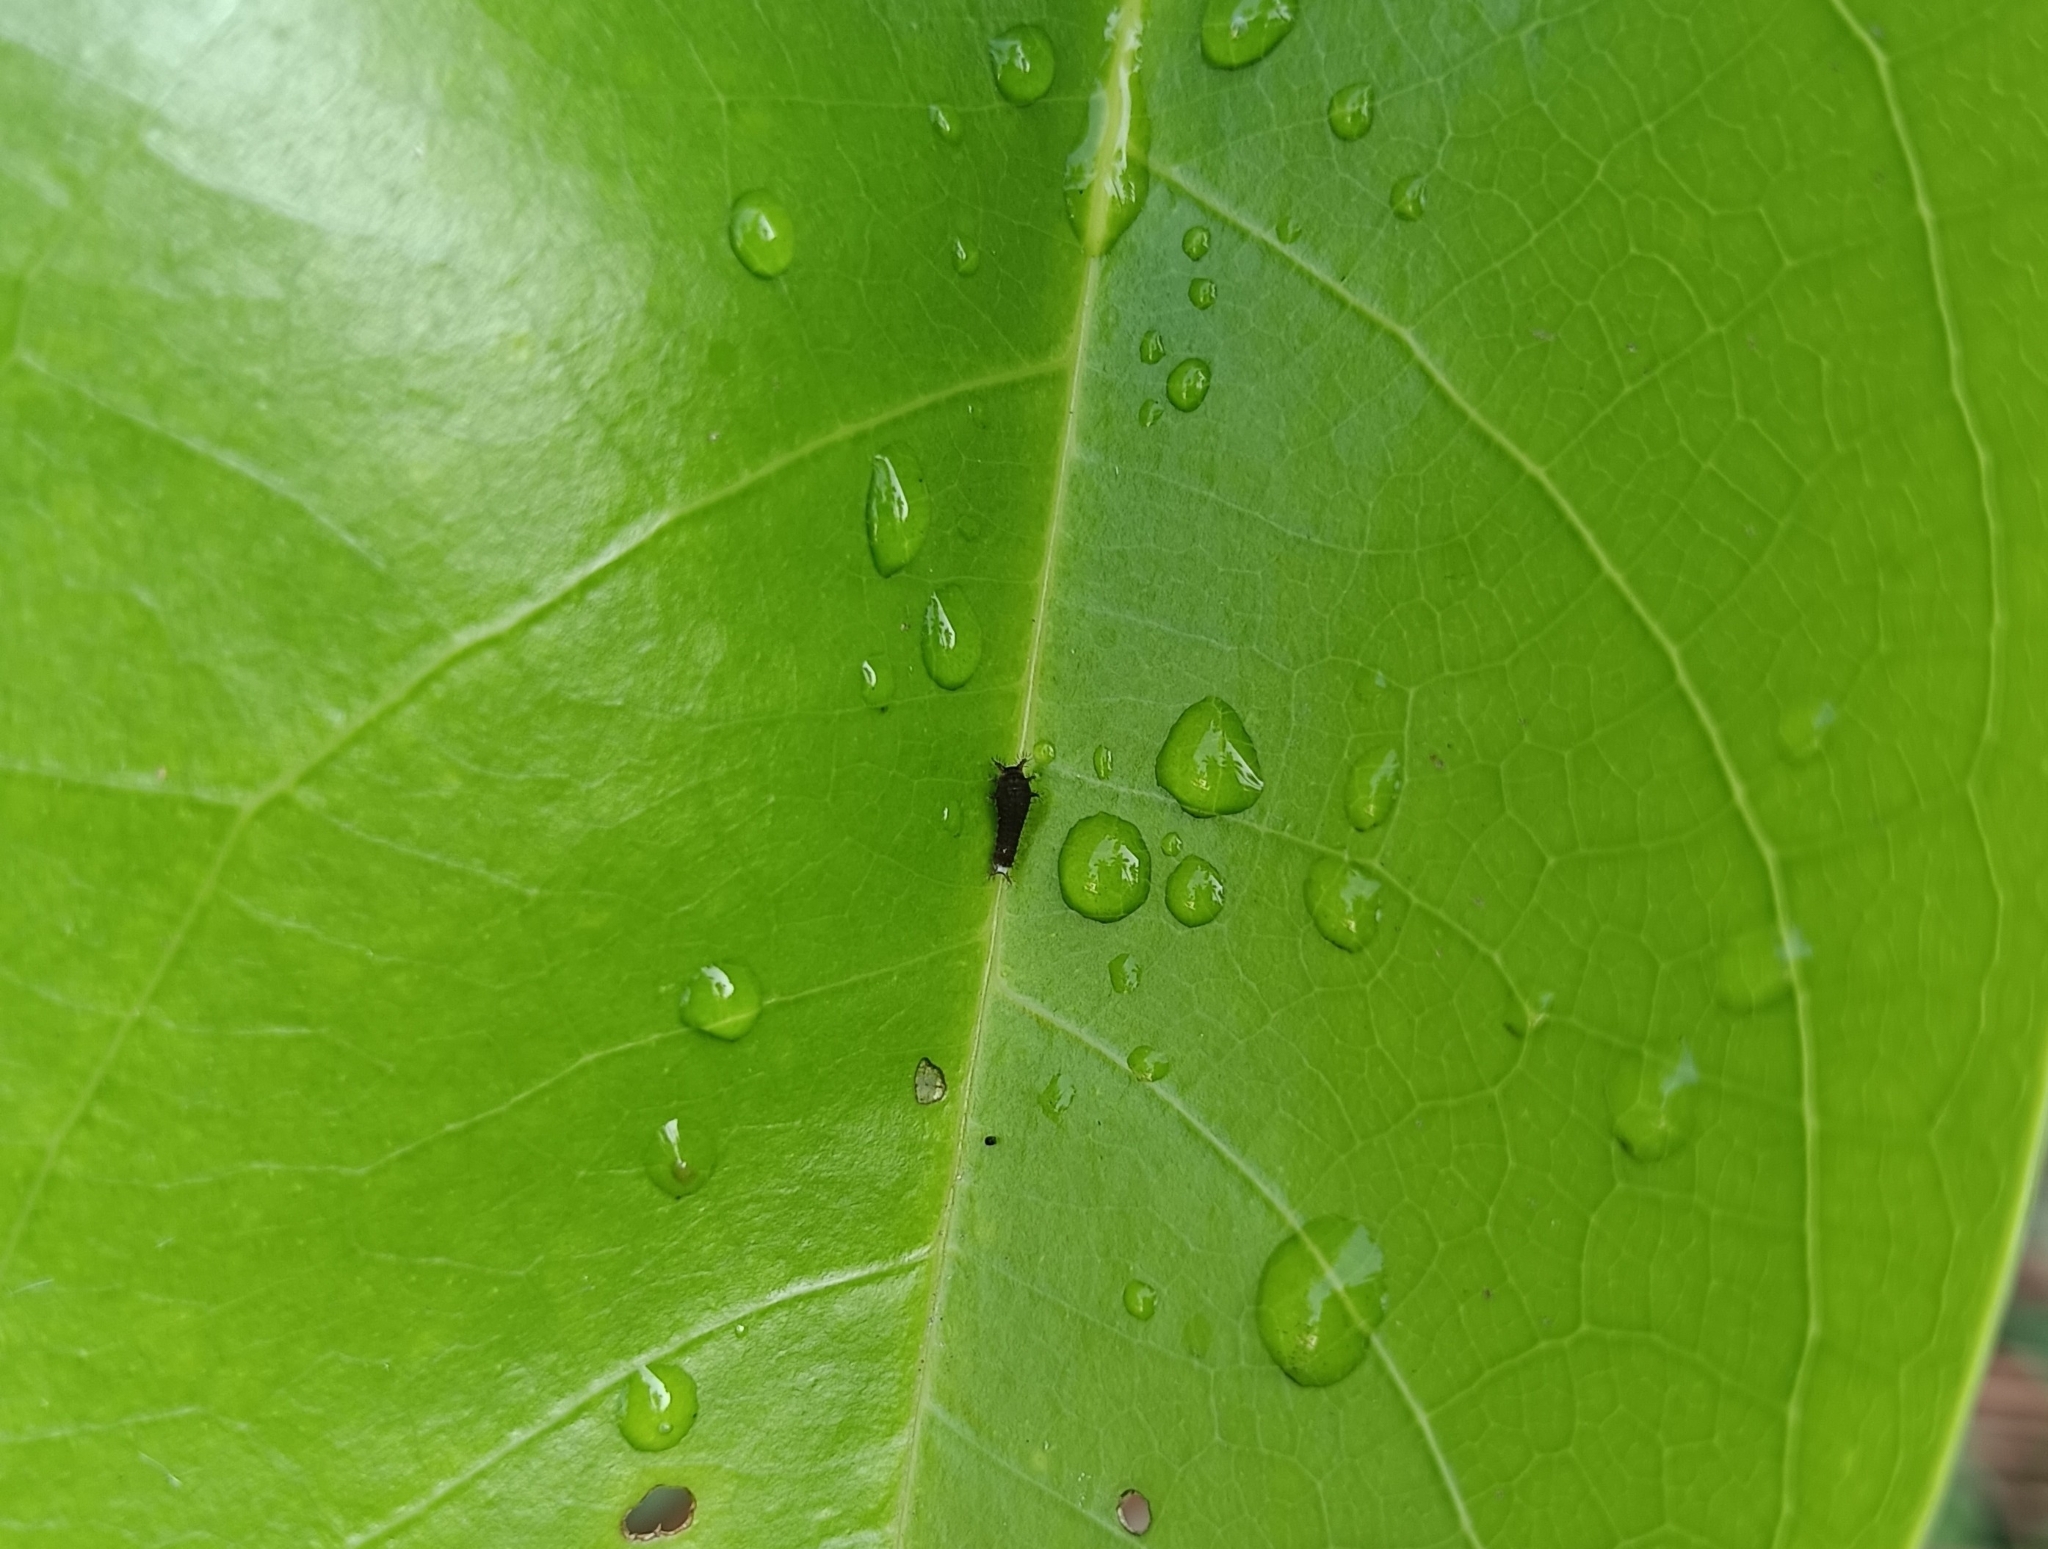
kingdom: Animalia
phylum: Arthropoda
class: Insecta
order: Lepidoptera
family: Papilionidae
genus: Graphium
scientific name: Graphium doson
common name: Common jay
